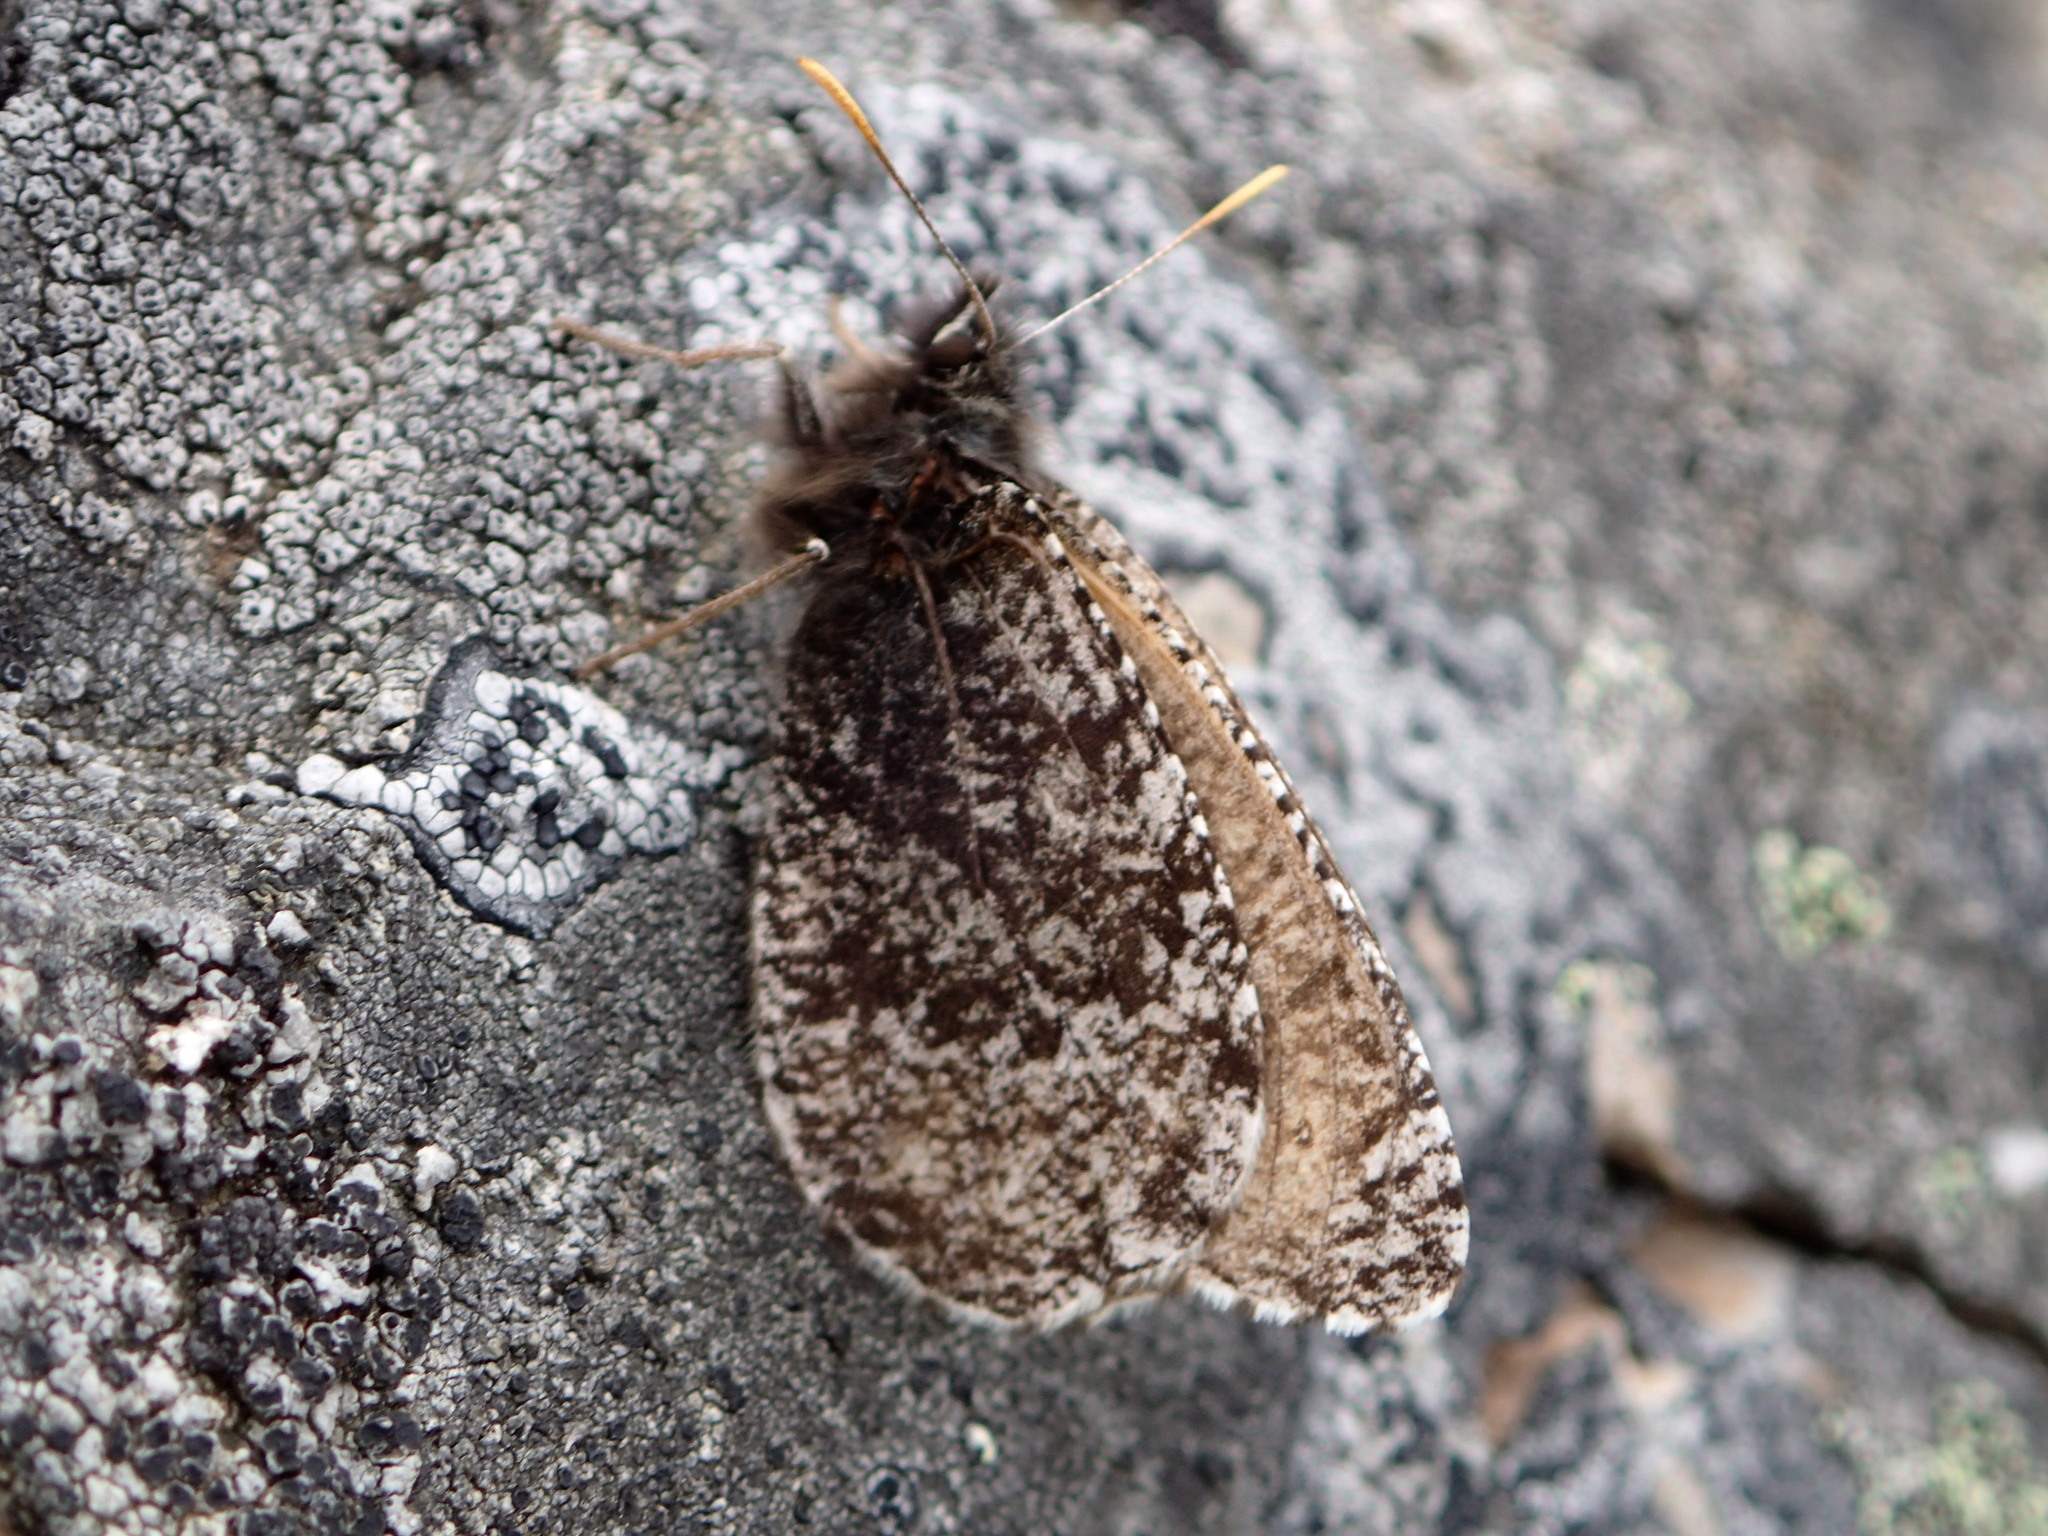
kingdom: Animalia
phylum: Arthropoda
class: Insecta
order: Lepidoptera
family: Nymphalidae
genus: Oeneis
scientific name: Oeneis melissa
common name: Melissa arctic
